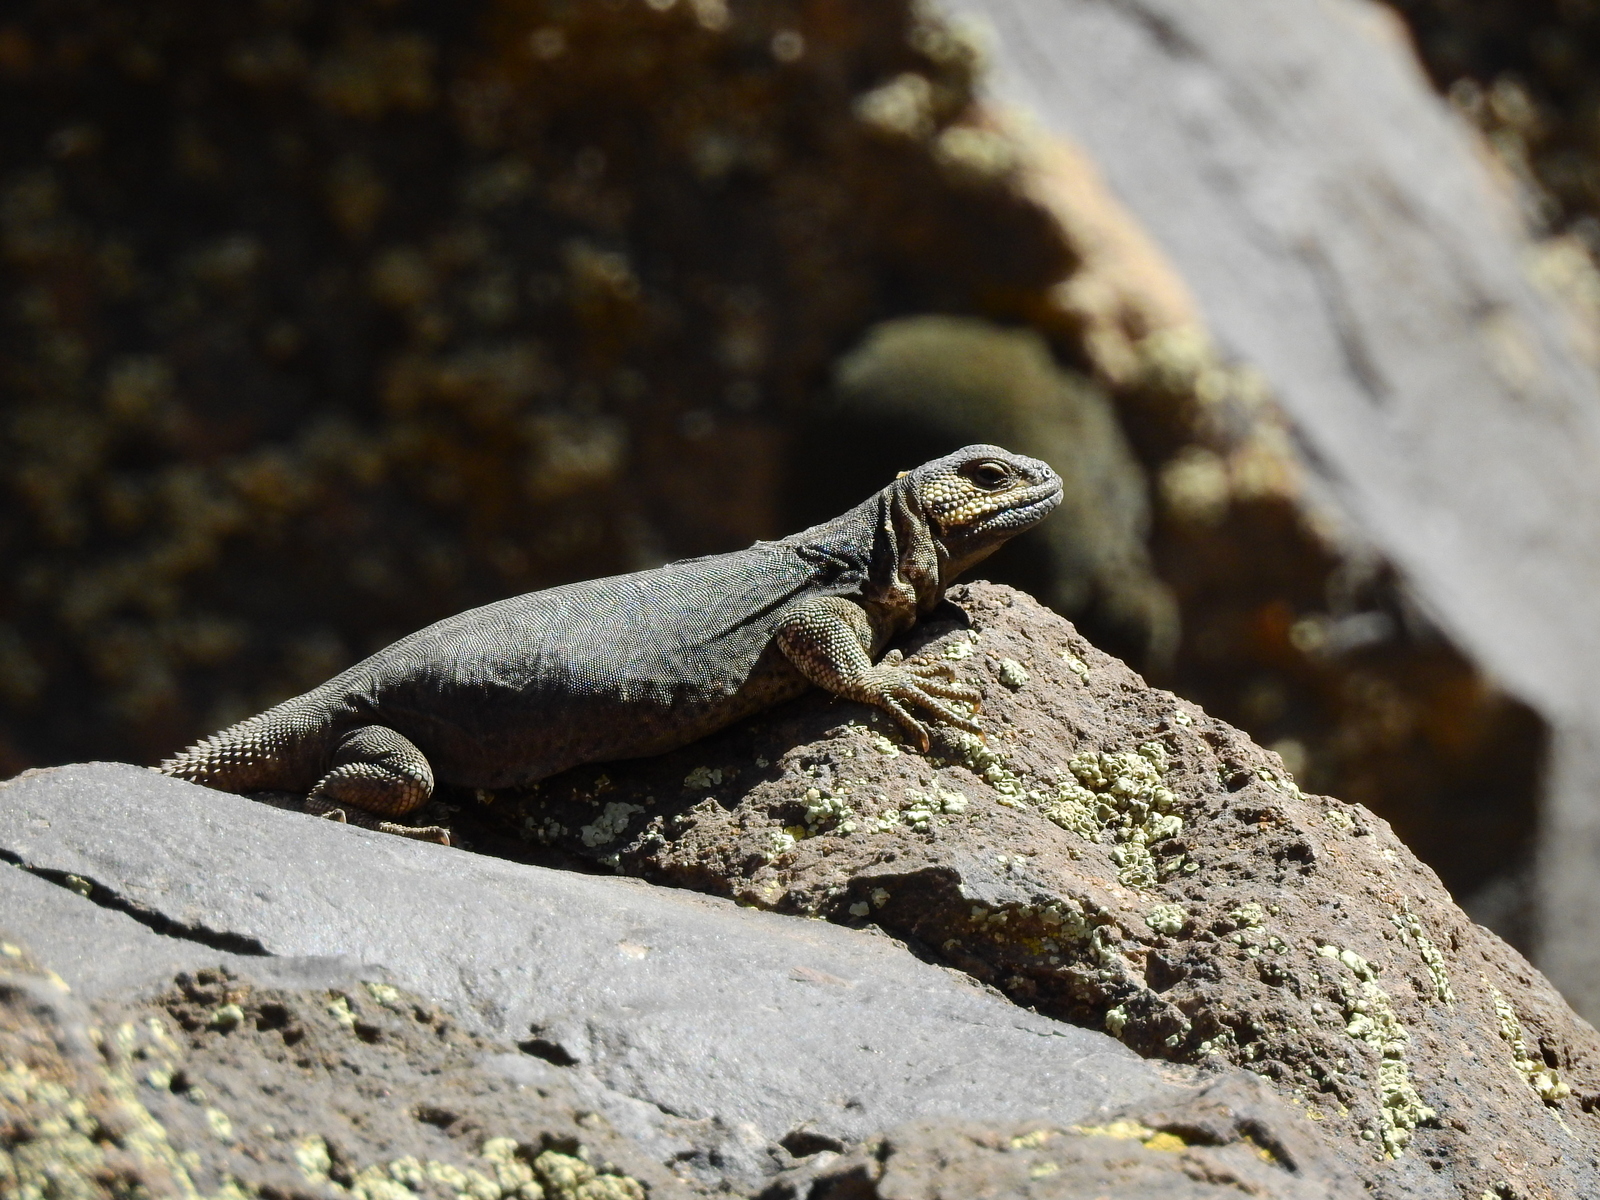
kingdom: Animalia
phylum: Chordata
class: Squamata
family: Liolaemidae
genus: Phymaturus
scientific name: Phymaturus verdugo
